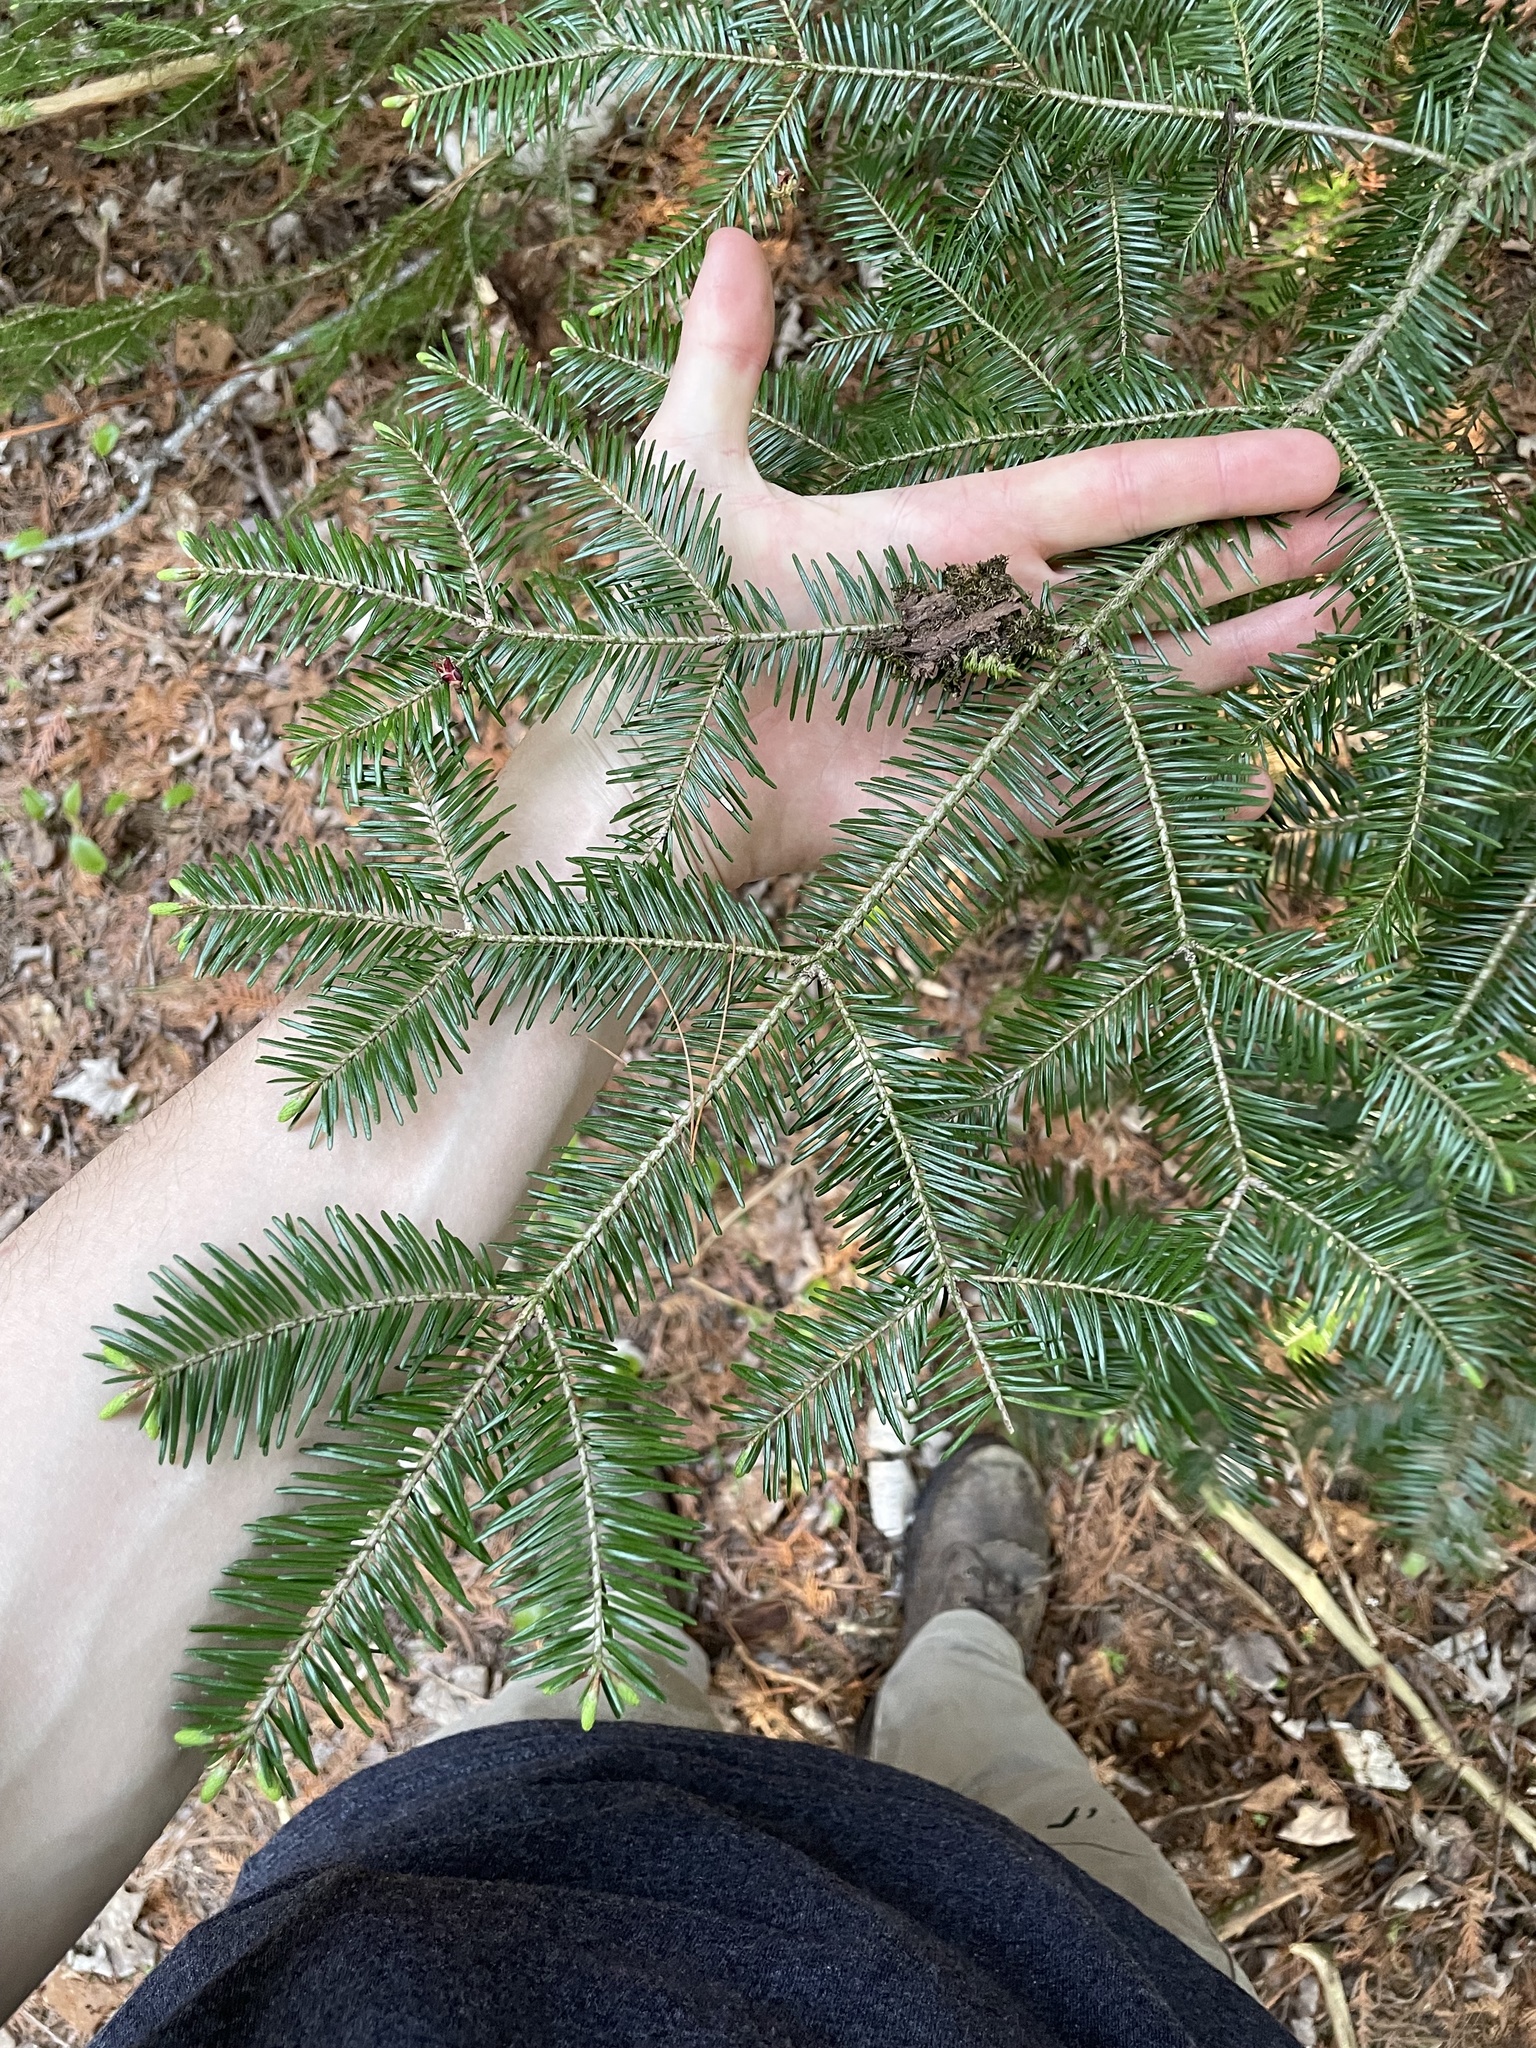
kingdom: Plantae
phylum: Tracheophyta
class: Pinopsida
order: Pinales
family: Pinaceae
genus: Abies
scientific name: Abies balsamea
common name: Balsam fir
